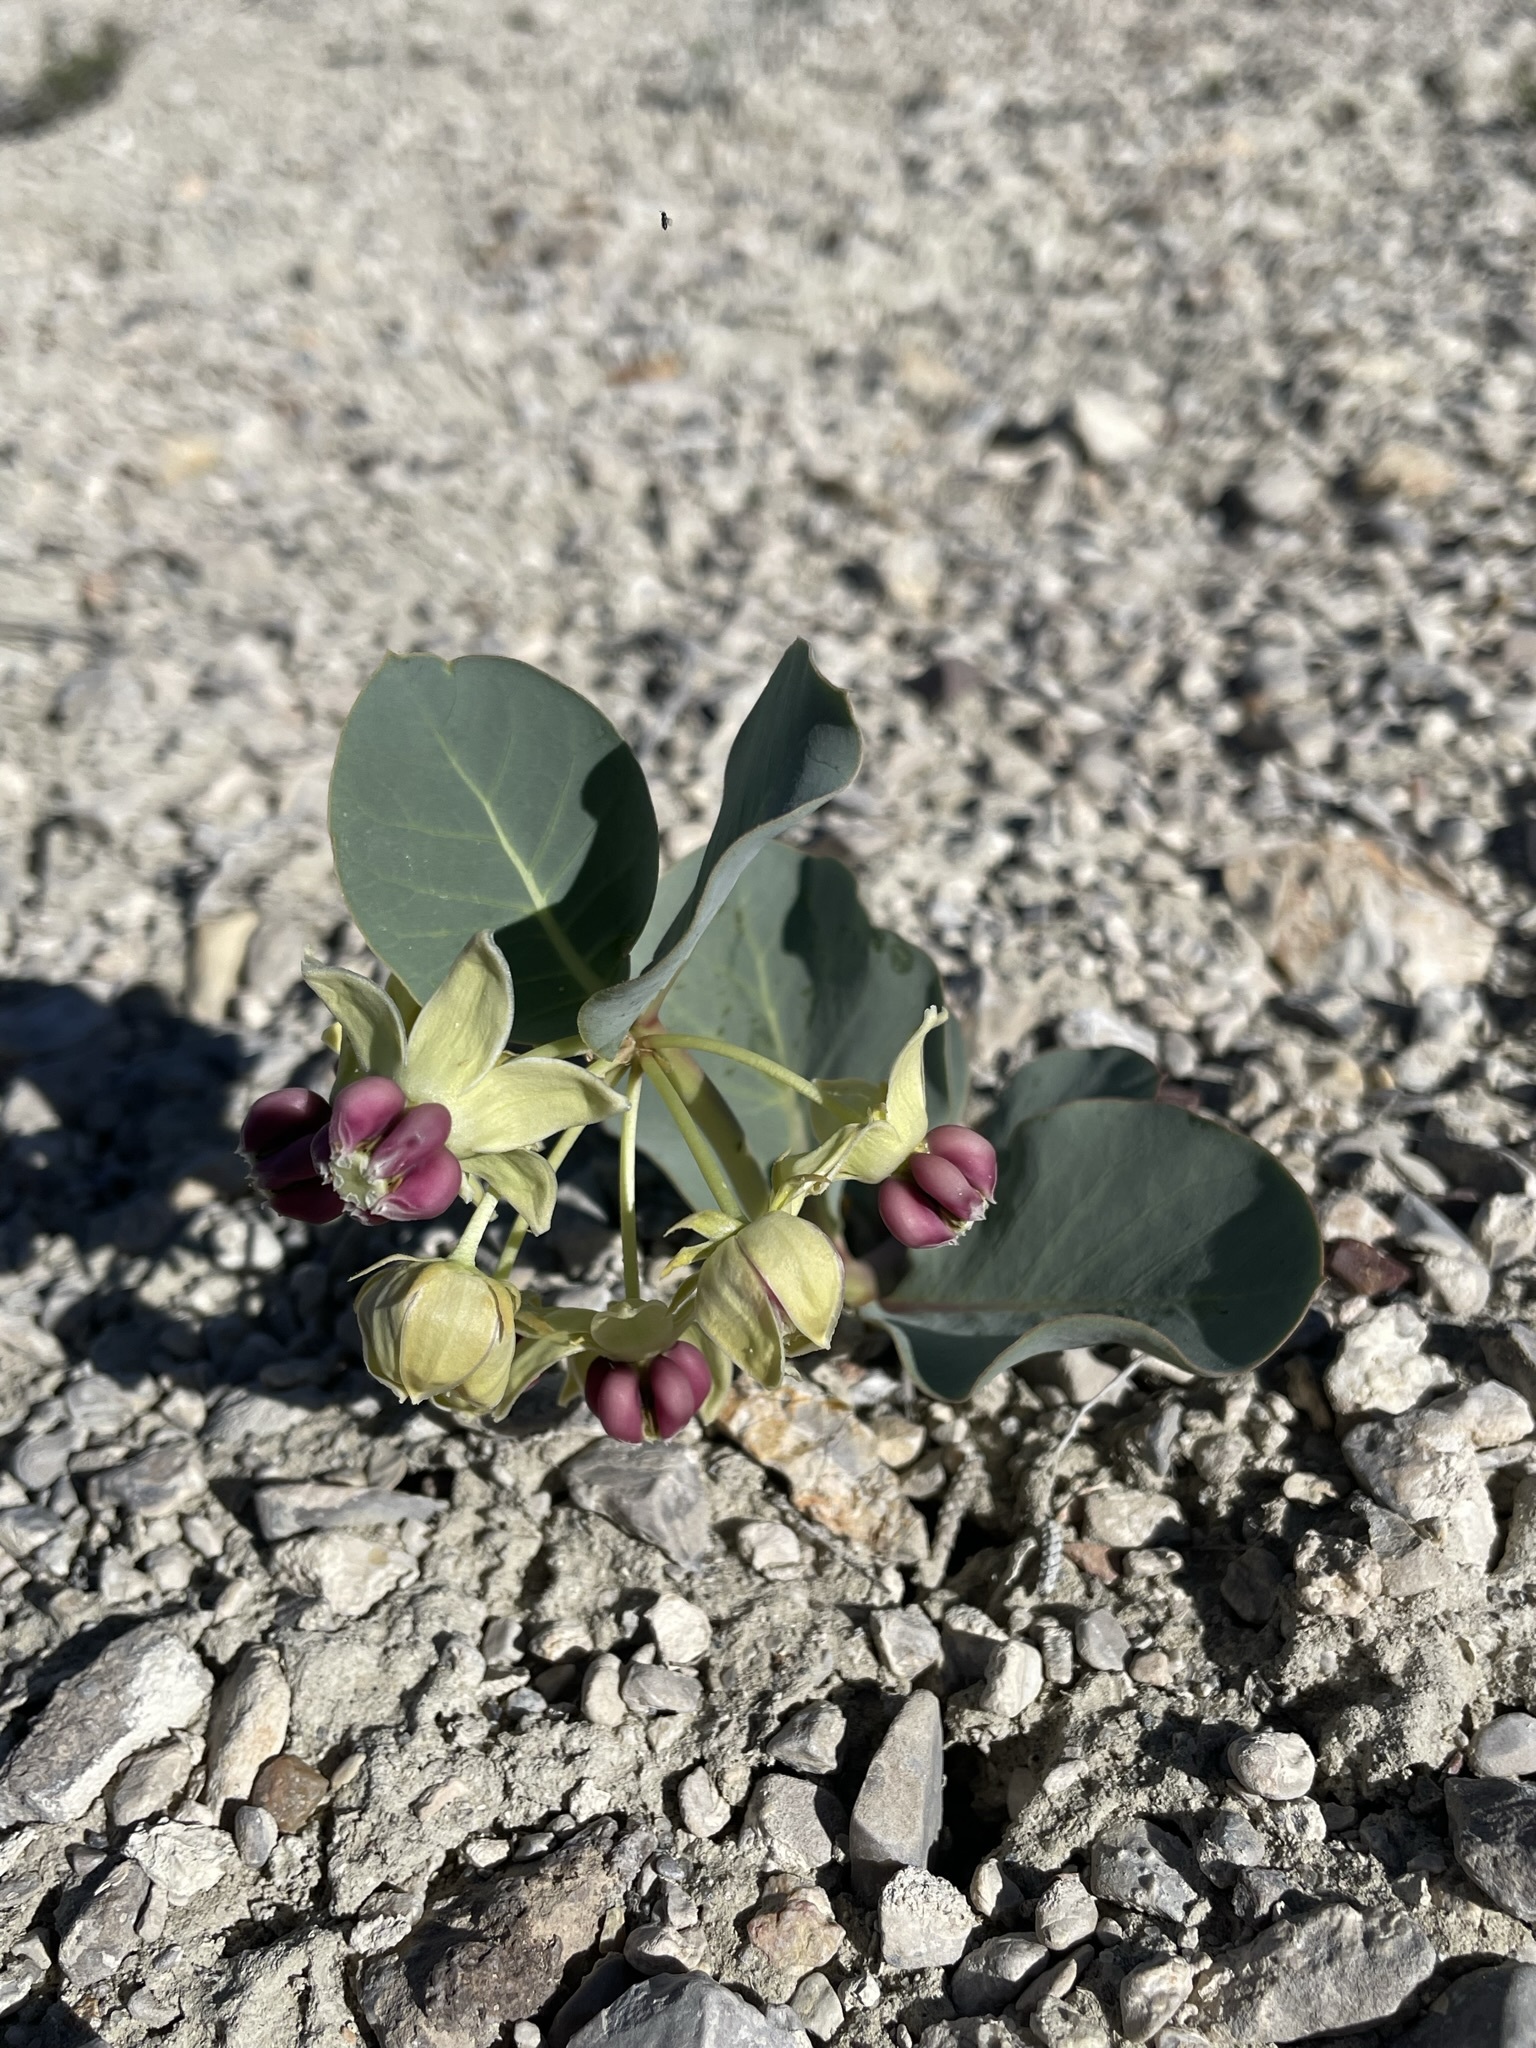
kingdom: Plantae
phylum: Tracheophyta
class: Magnoliopsida
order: Gentianales
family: Apocynaceae
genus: Asclepias
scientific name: Asclepias cryptoceras
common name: Humboldt mountains milkweed
